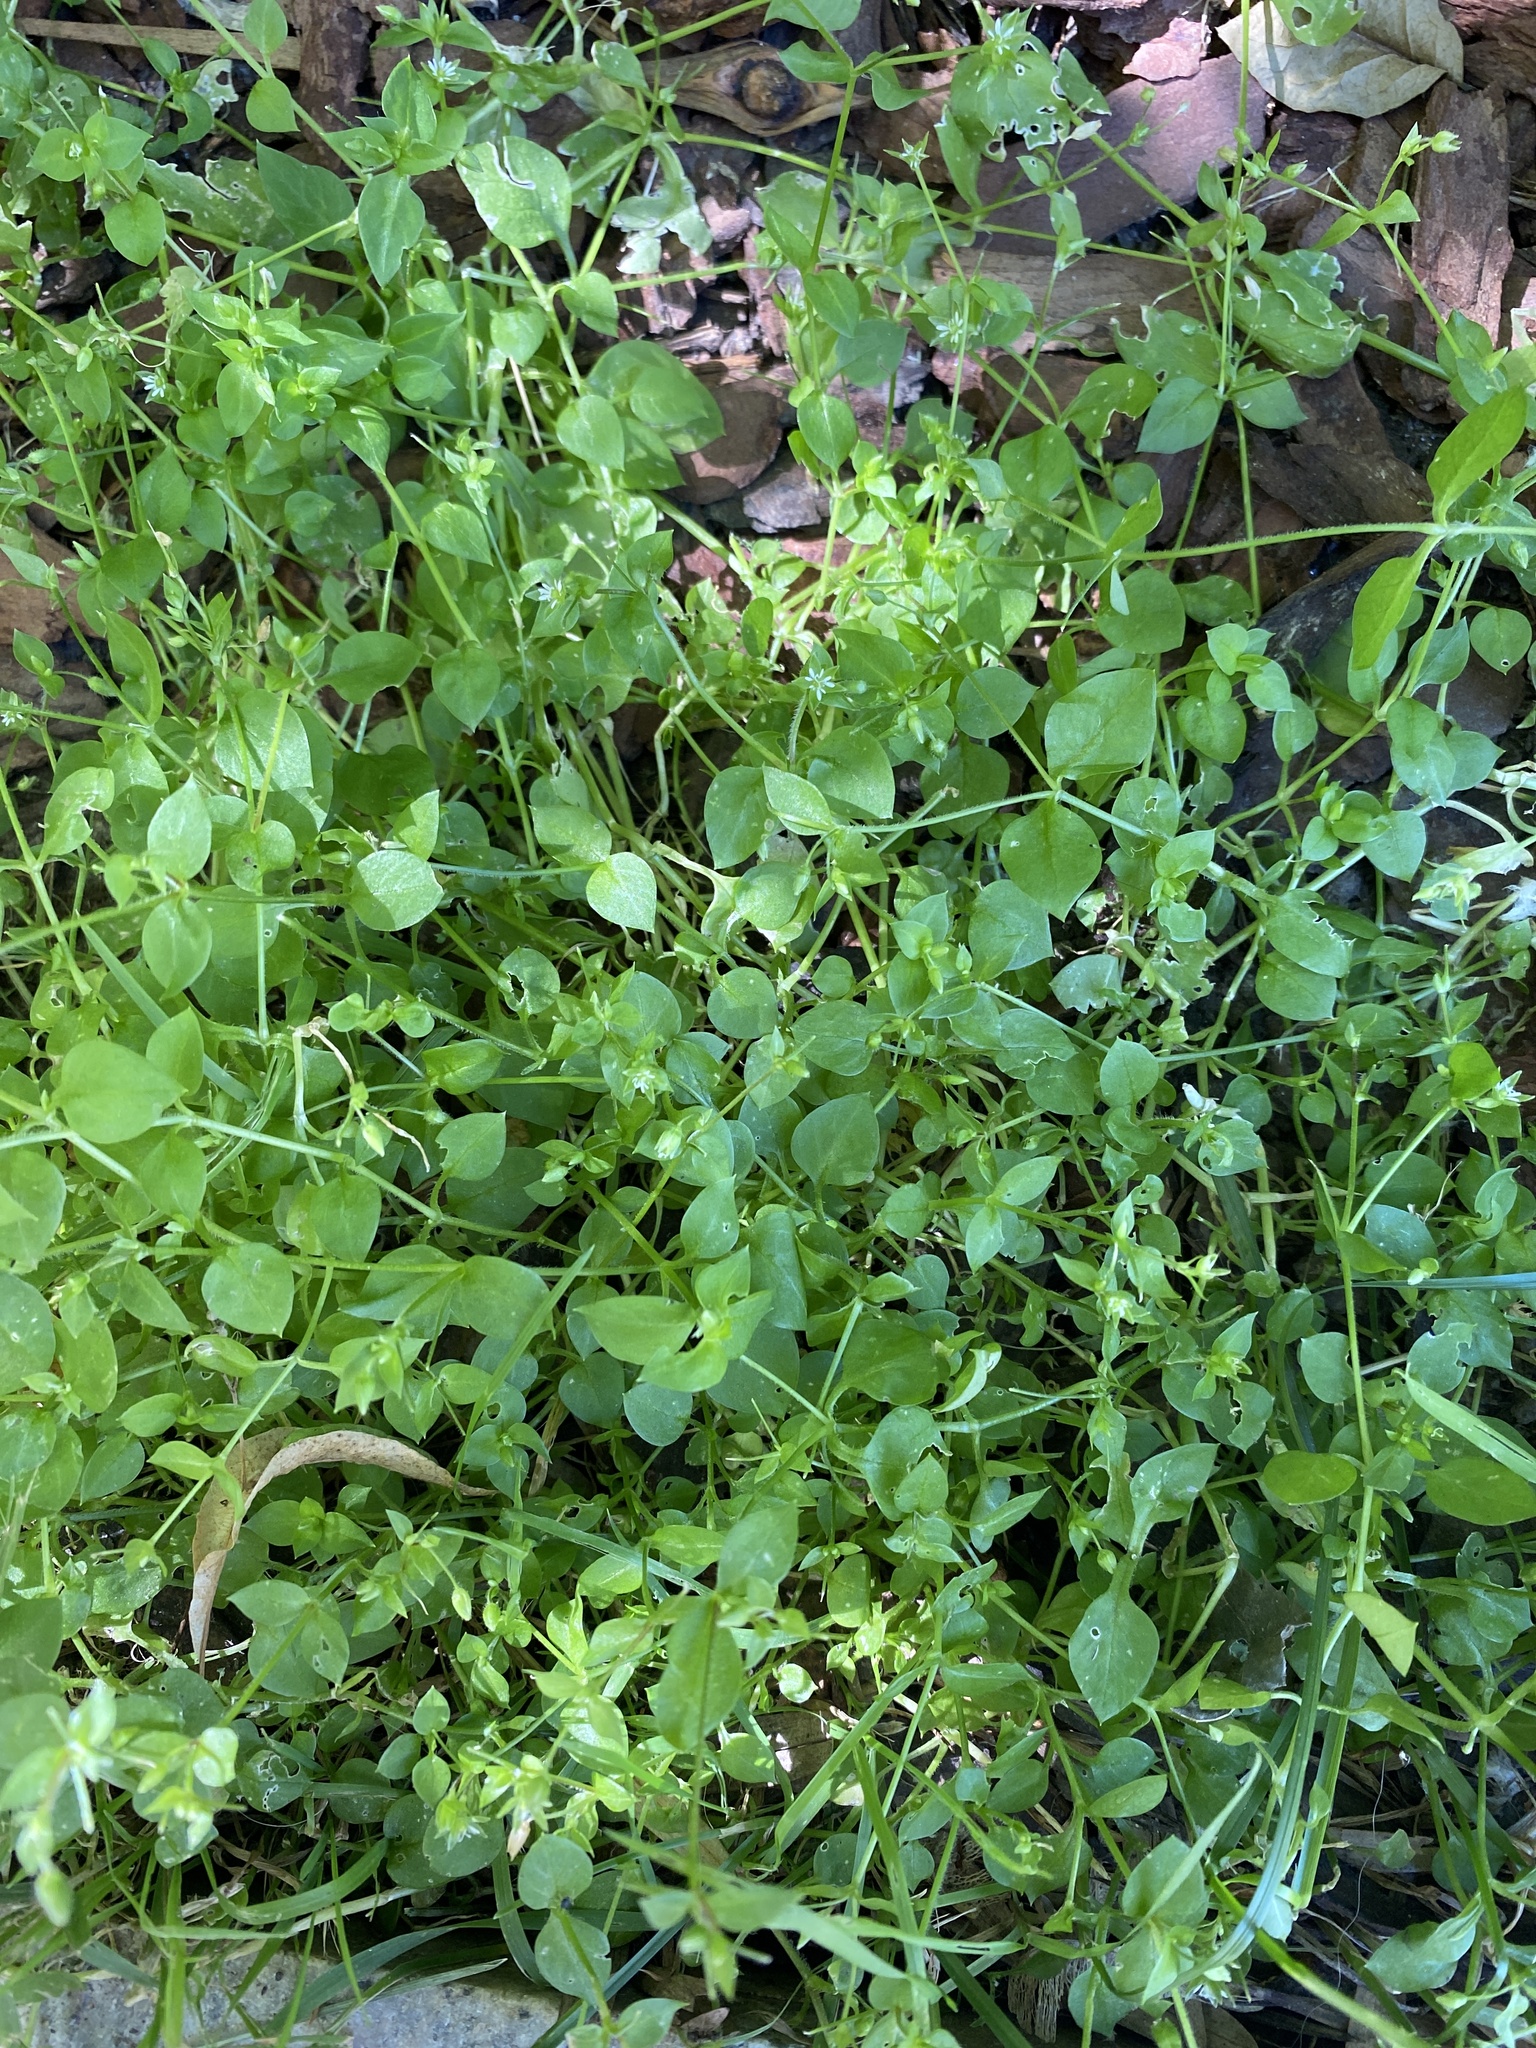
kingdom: Plantae
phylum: Tracheophyta
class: Magnoliopsida
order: Caryophyllales
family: Caryophyllaceae
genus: Stellaria
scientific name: Stellaria media
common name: Common chickweed
